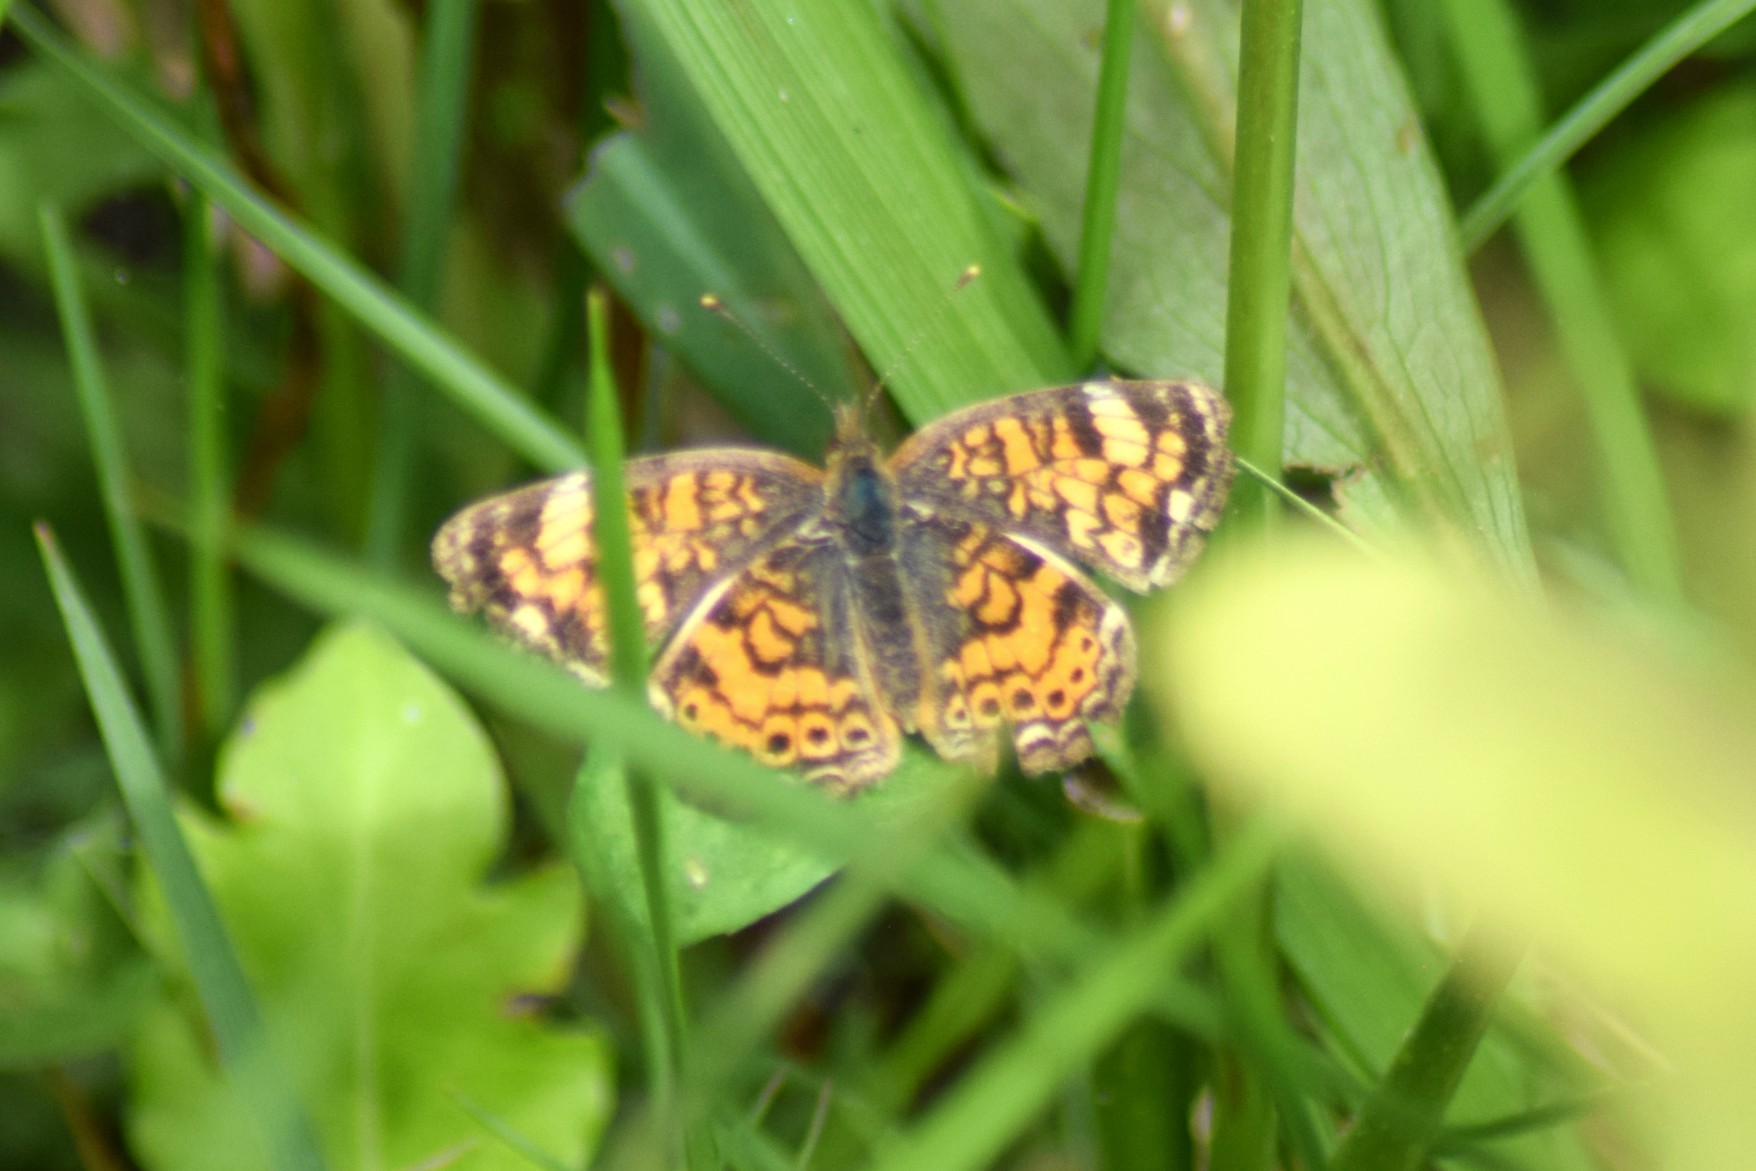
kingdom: Animalia
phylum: Arthropoda
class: Insecta
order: Lepidoptera
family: Nymphalidae
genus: Phyciodes
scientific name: Phyciodes tharos
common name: Pearl crescent
